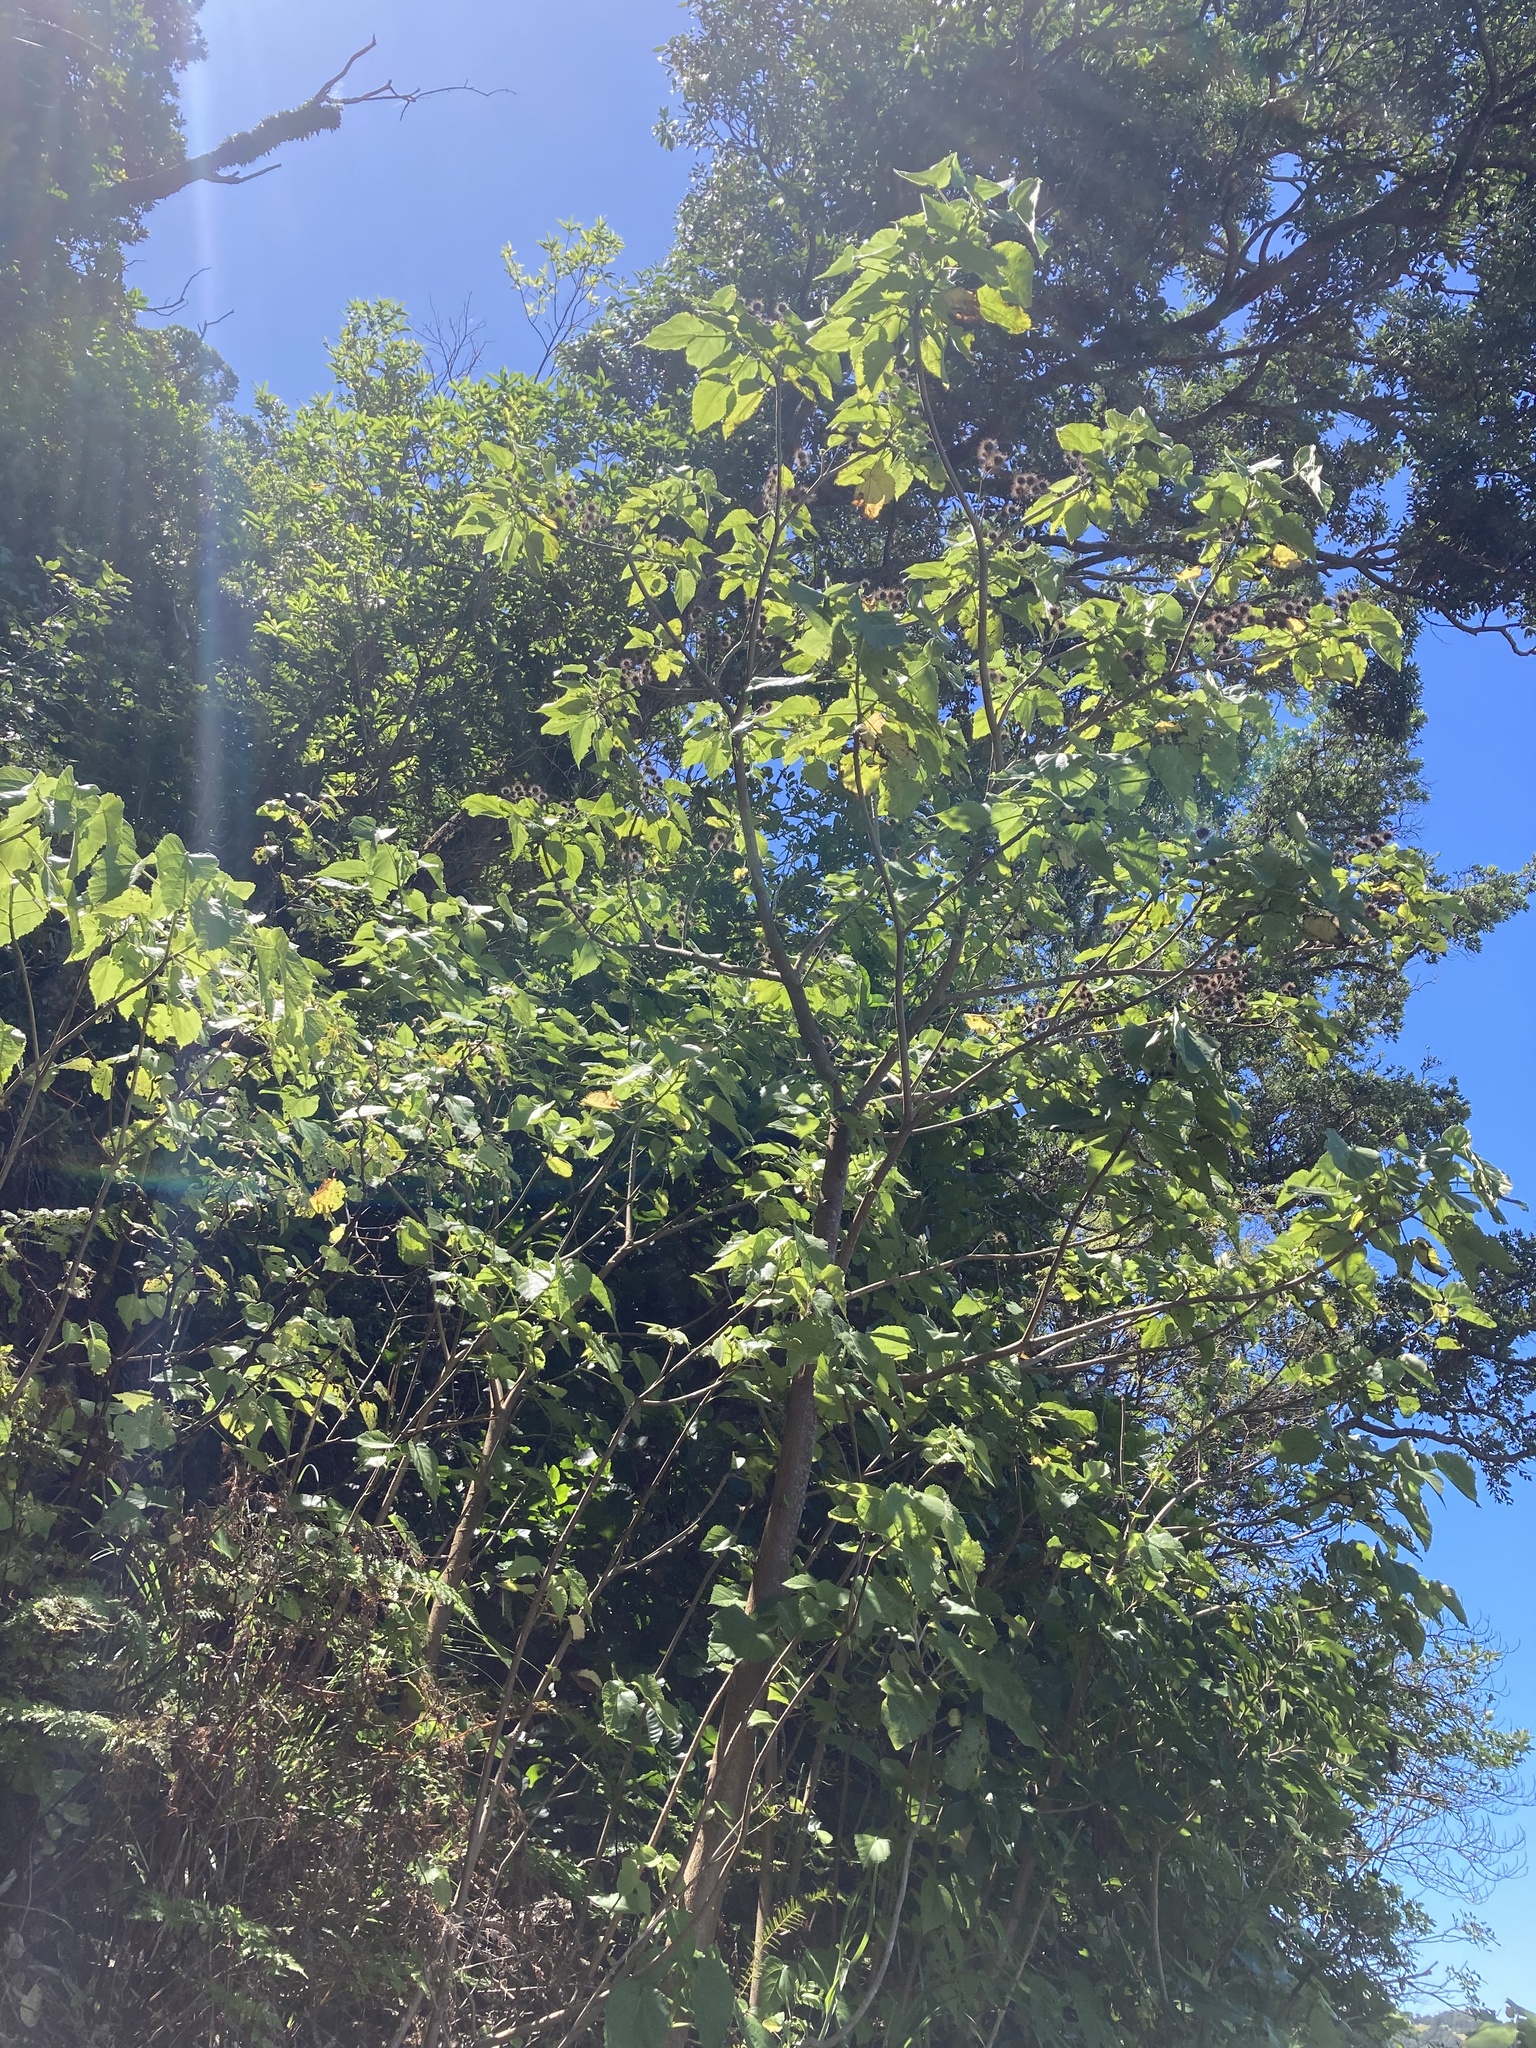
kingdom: Plantae
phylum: Tracheophyta
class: Magnoliopsida
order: Malvales
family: Malvaceae
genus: Entelea
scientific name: Entelea arborescens
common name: New zealand-mulberry
